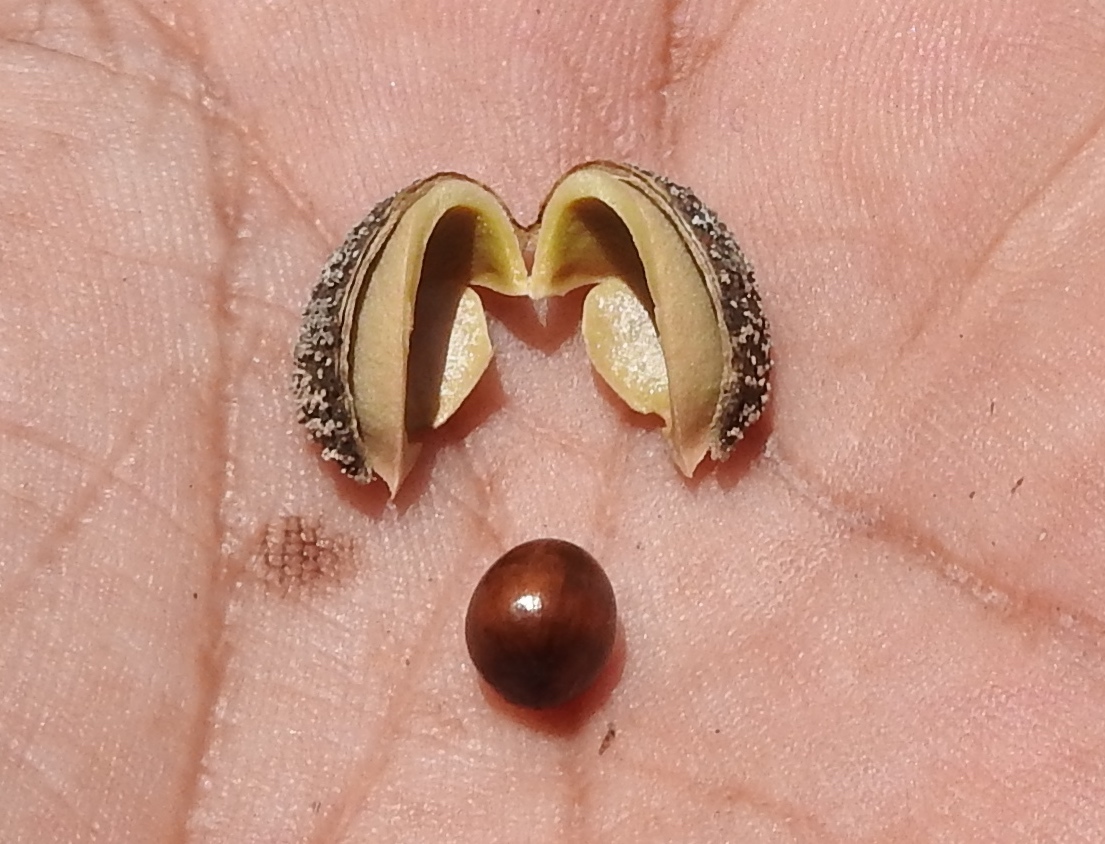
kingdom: Plantae
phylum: Tracheophyta
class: Magnoliopsida
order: Malpighiales
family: Picrodendraceae
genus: Piranhea
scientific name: Piranhea mexicana
